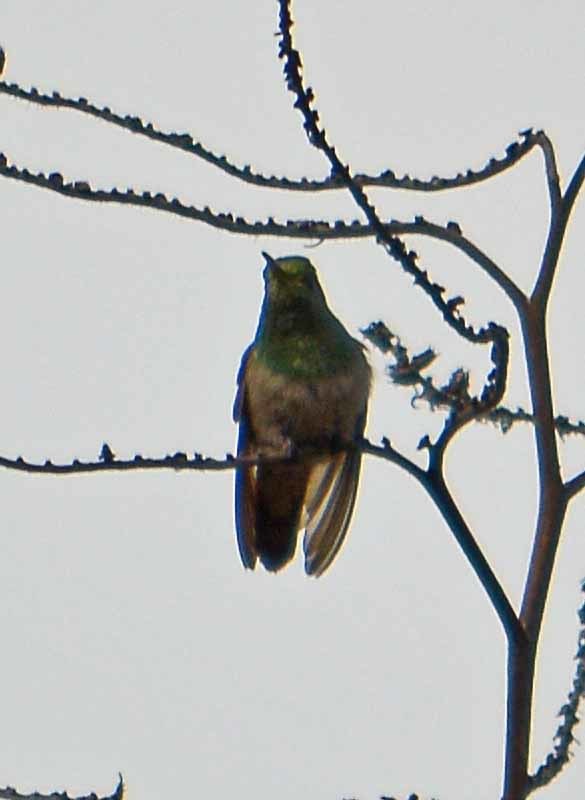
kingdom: Animalia
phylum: Chordata
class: Aves
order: Apodiformes
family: Trochilidae
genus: Saucerottia
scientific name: Saucerottia beryllina
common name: Berylline hummingbird
